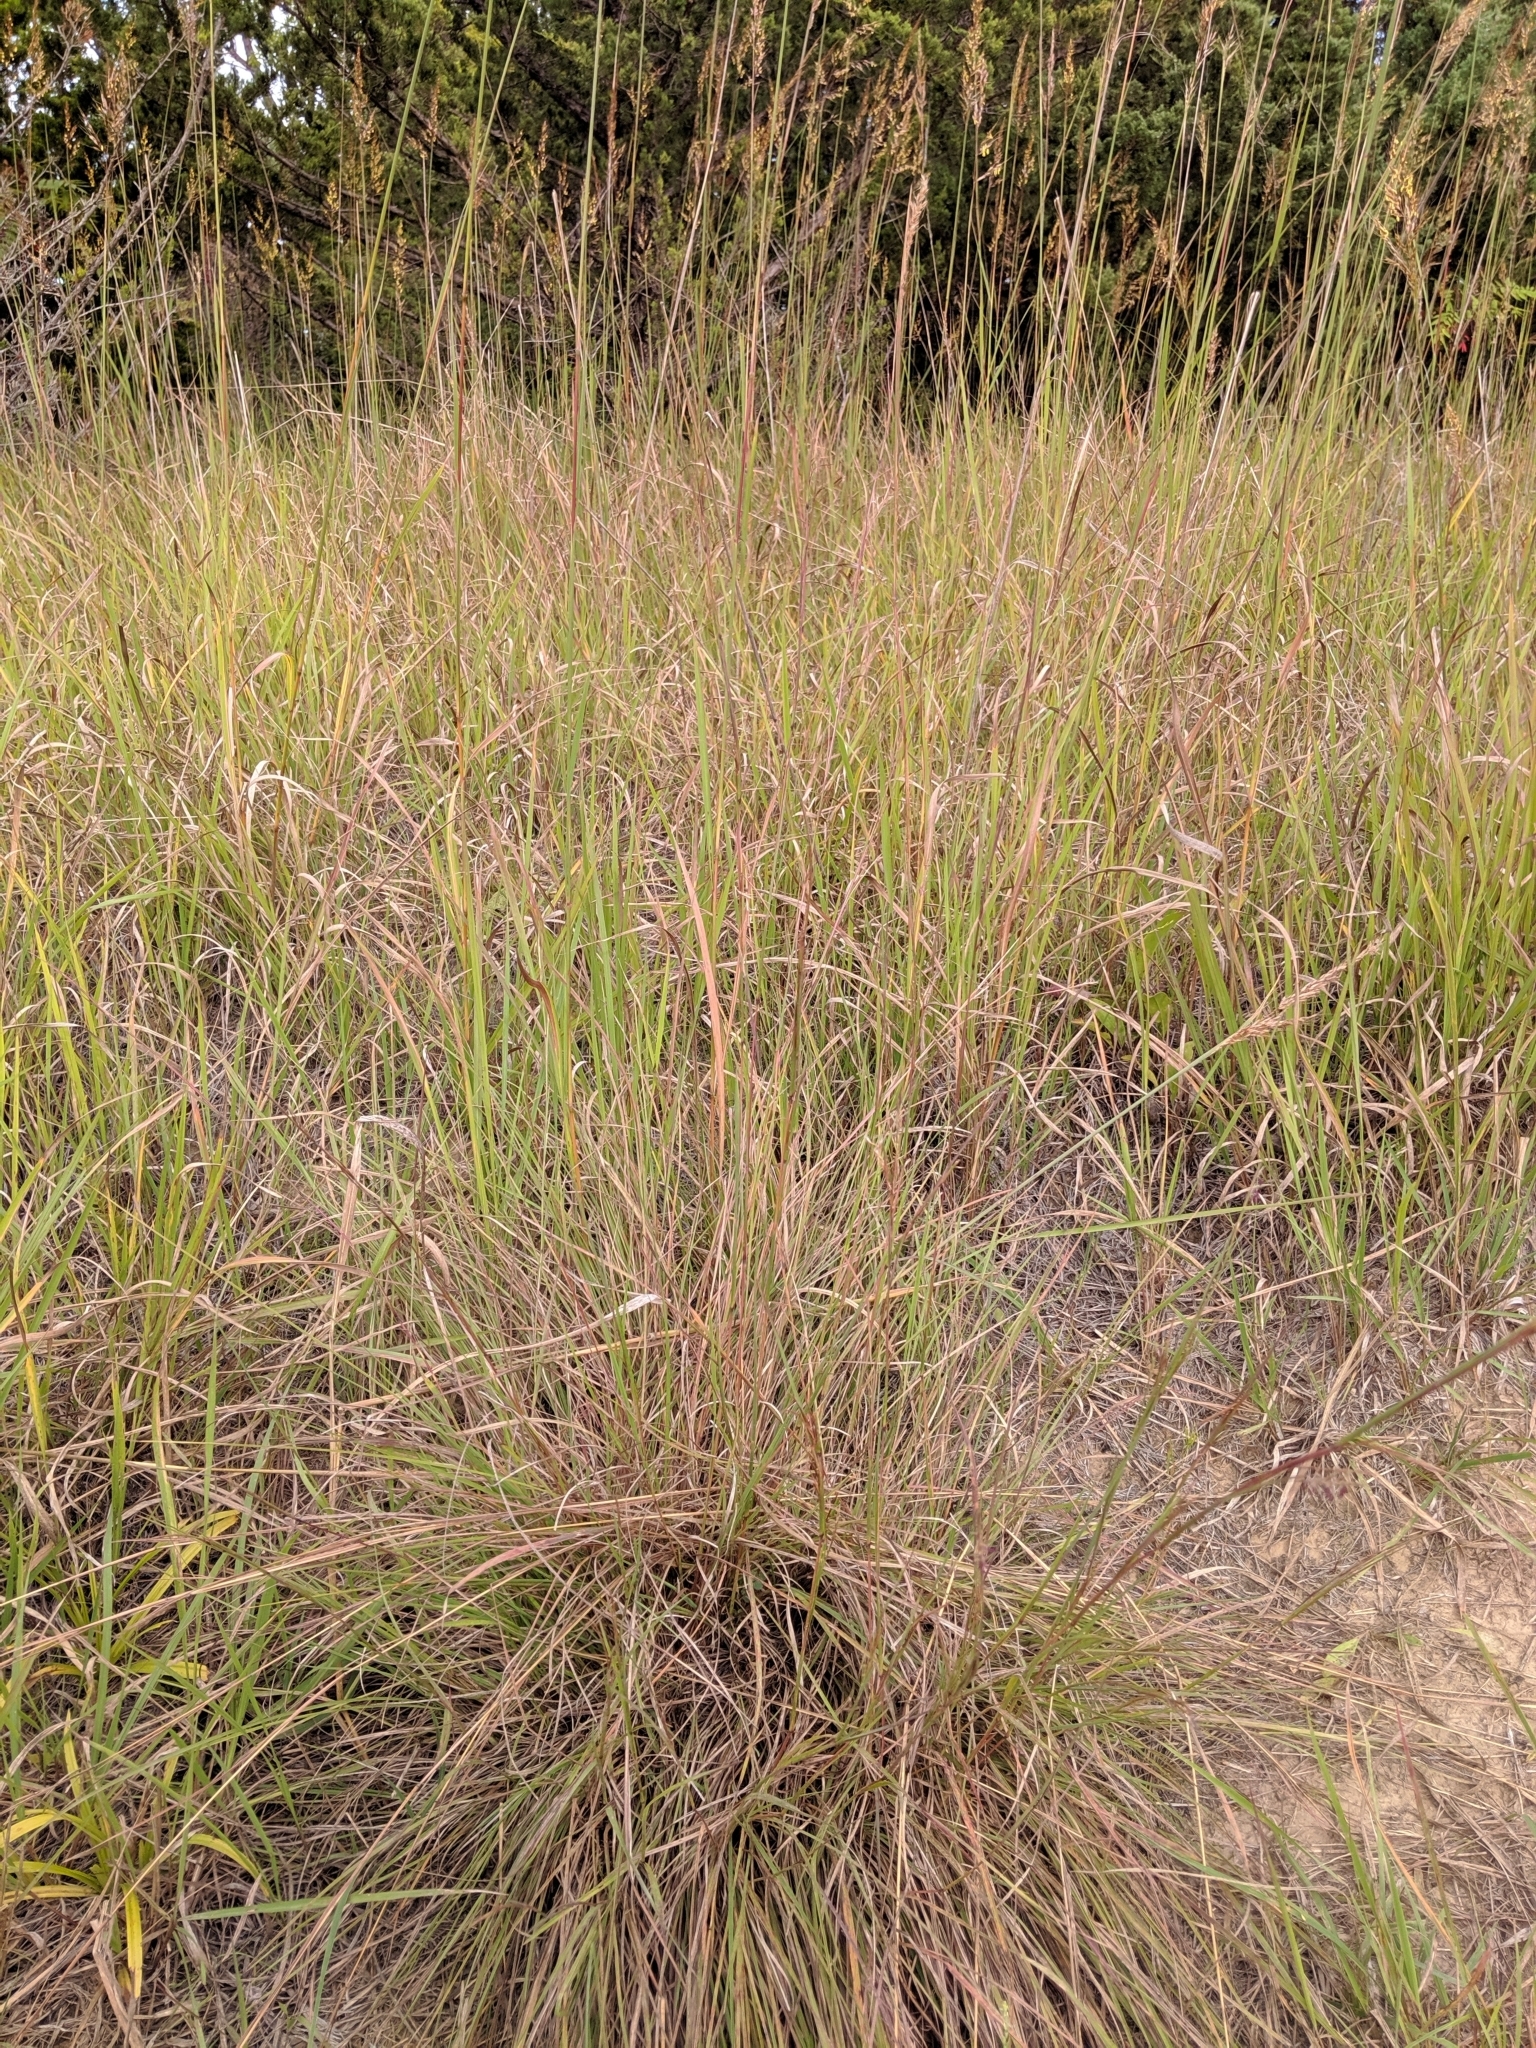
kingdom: Plantae
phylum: Tracheophyta
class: Liliopsida
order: Poales
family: Poaceae
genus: Schizachyrium
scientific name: Schizachyrium scoparium
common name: Little bluestem
